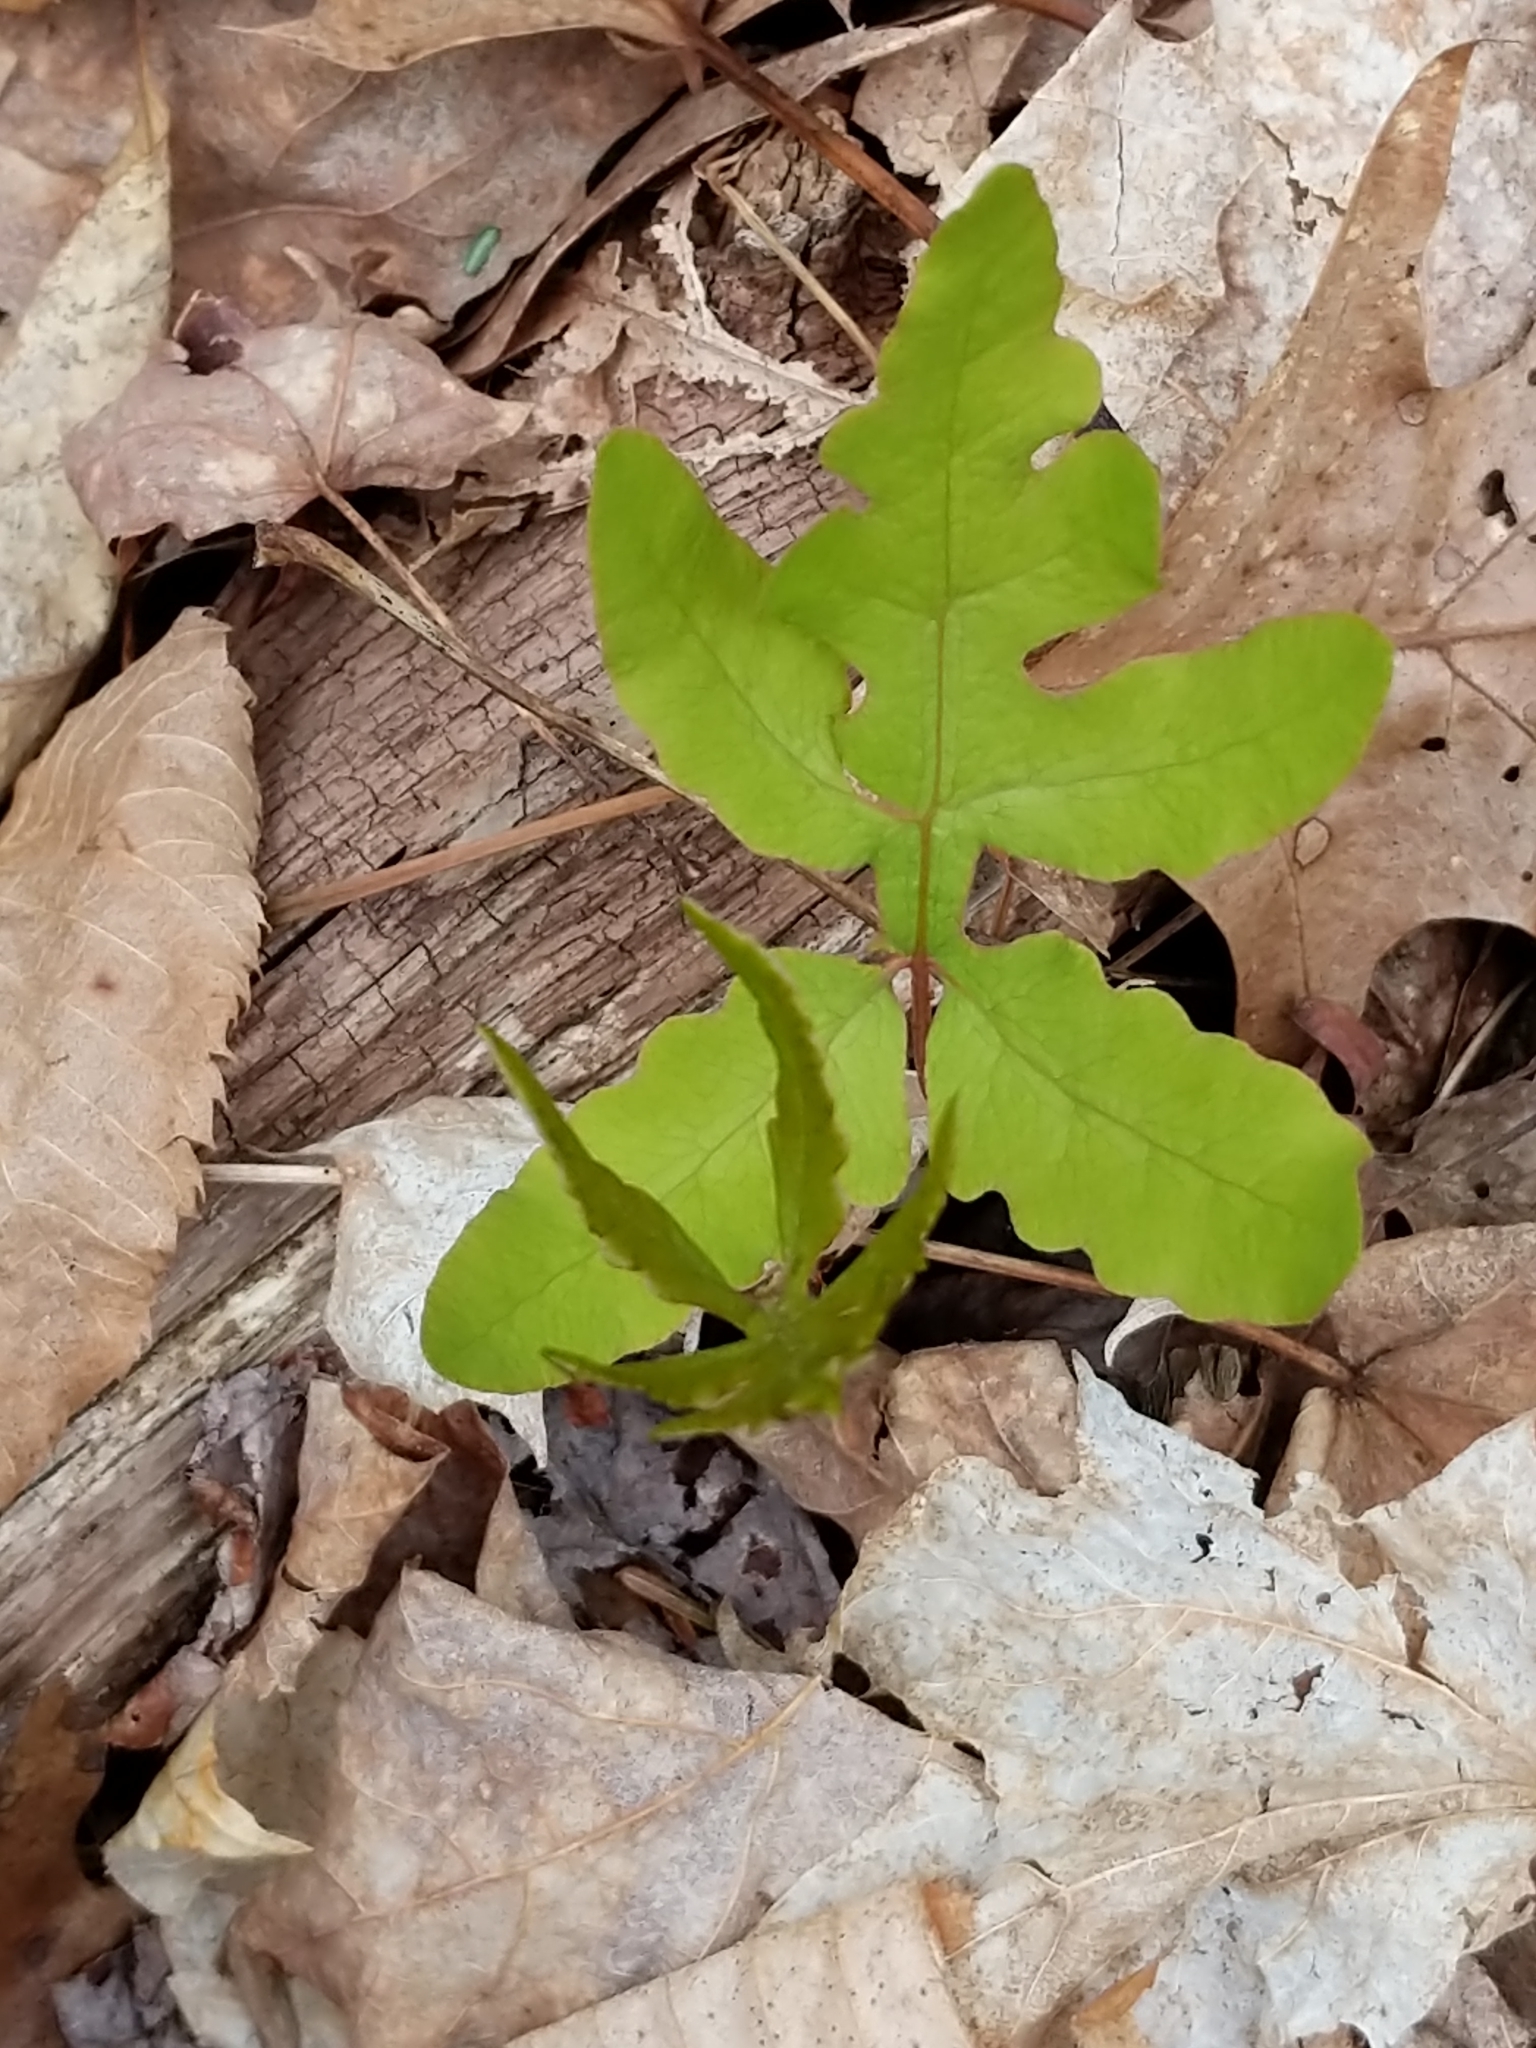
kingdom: Plantae
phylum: Tracheophyta
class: Polypodiopsida
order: Polypodiales
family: Onocleaceae
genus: Onoclea
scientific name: Onoclea sensibilis
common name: Sensitive fern
